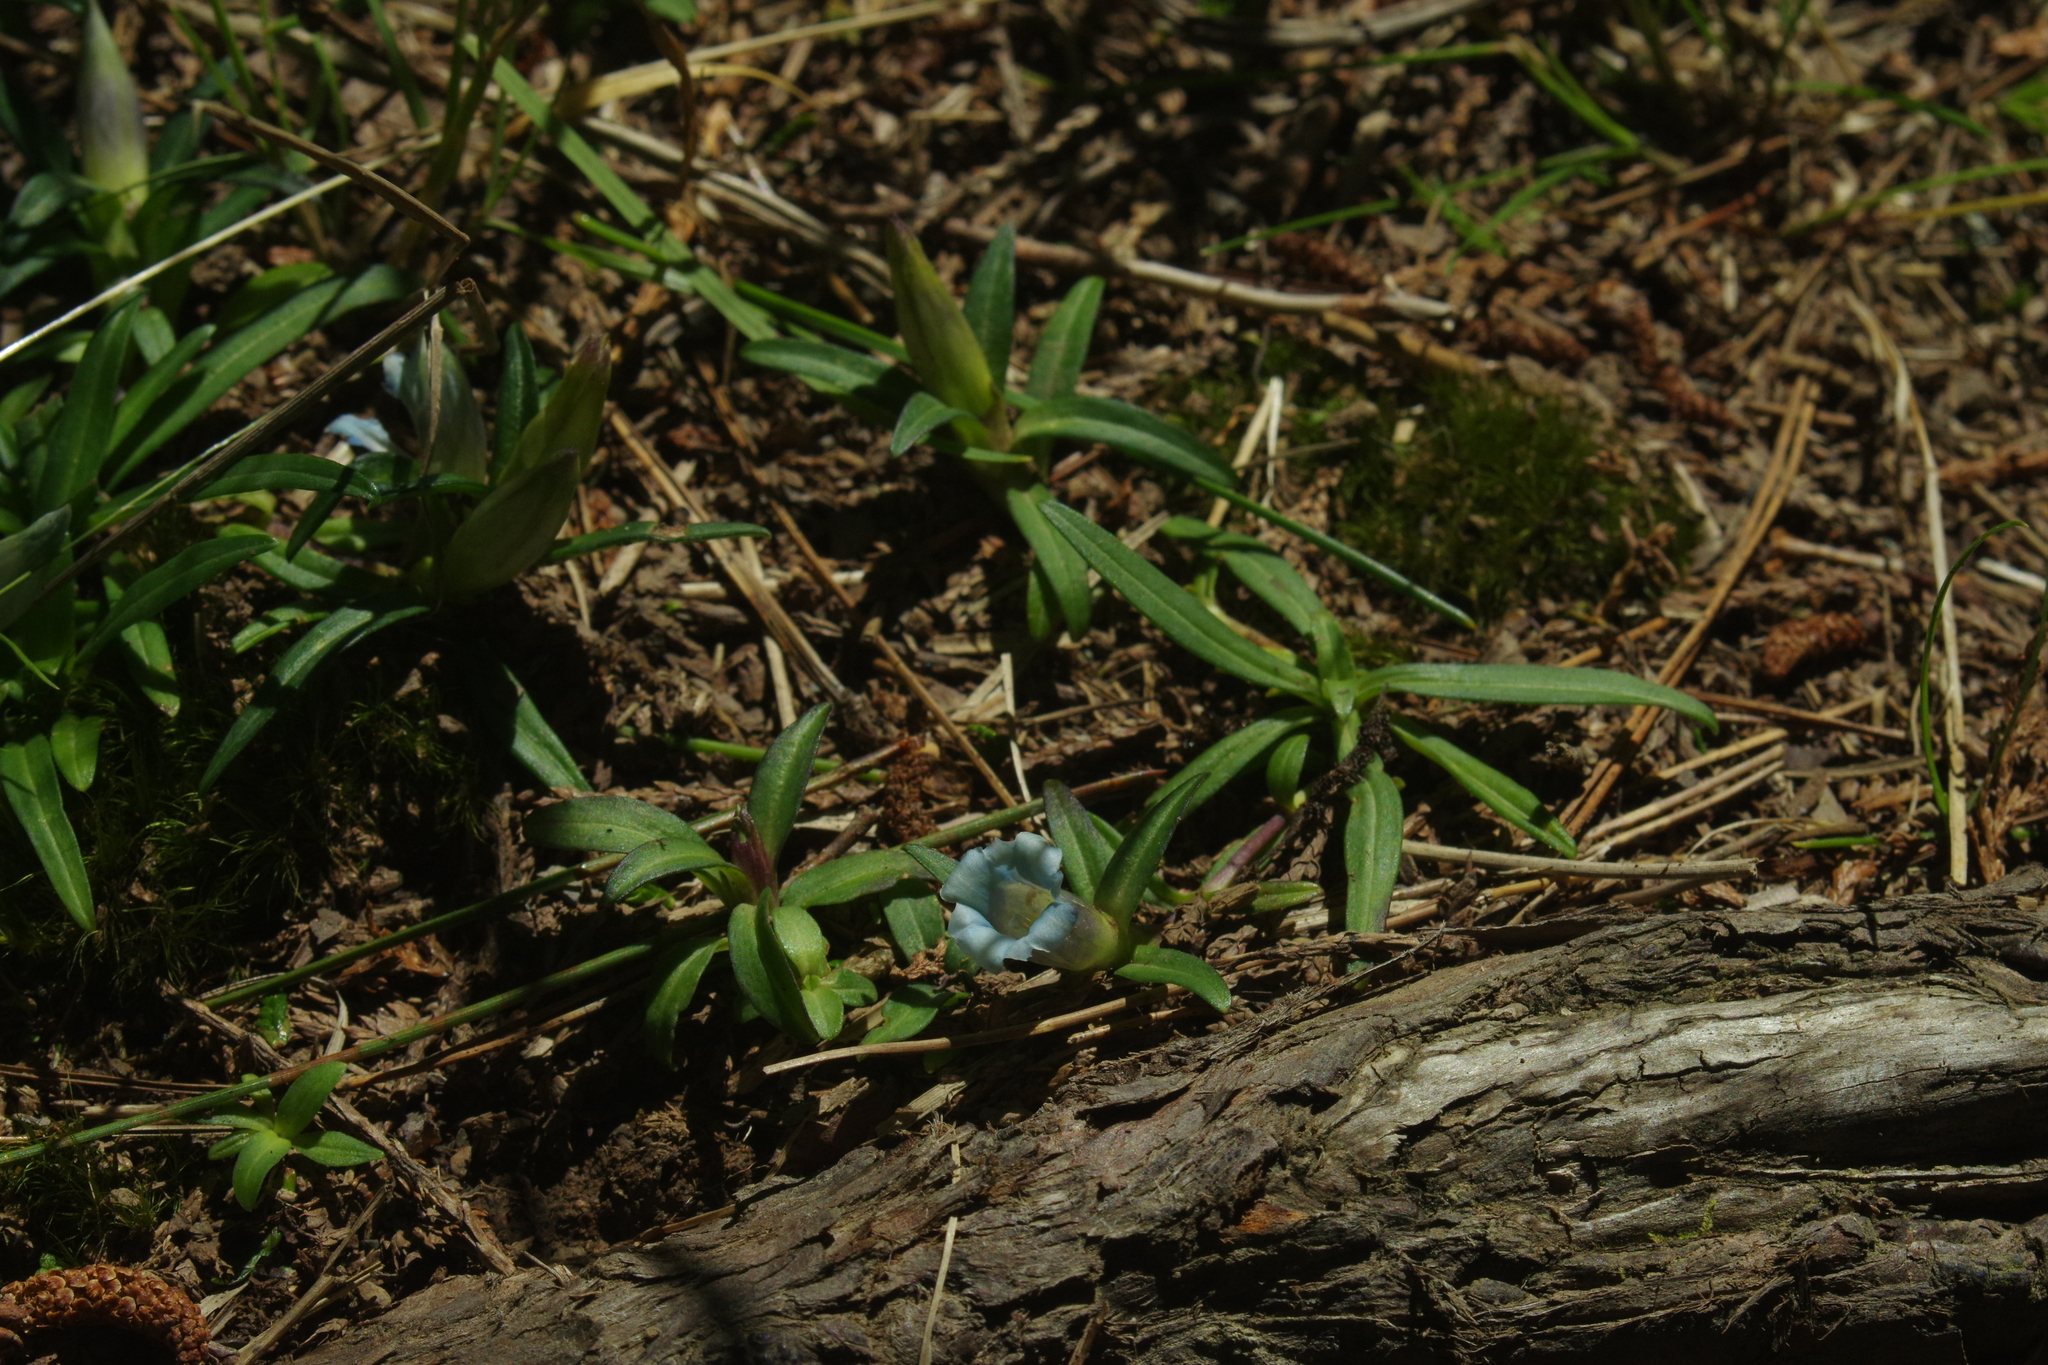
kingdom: Plantae
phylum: Tracheophyta
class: Magnoliopsida
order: Gentianales
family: Gentianaceae
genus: Gentiana
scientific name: Gentiana davidii
